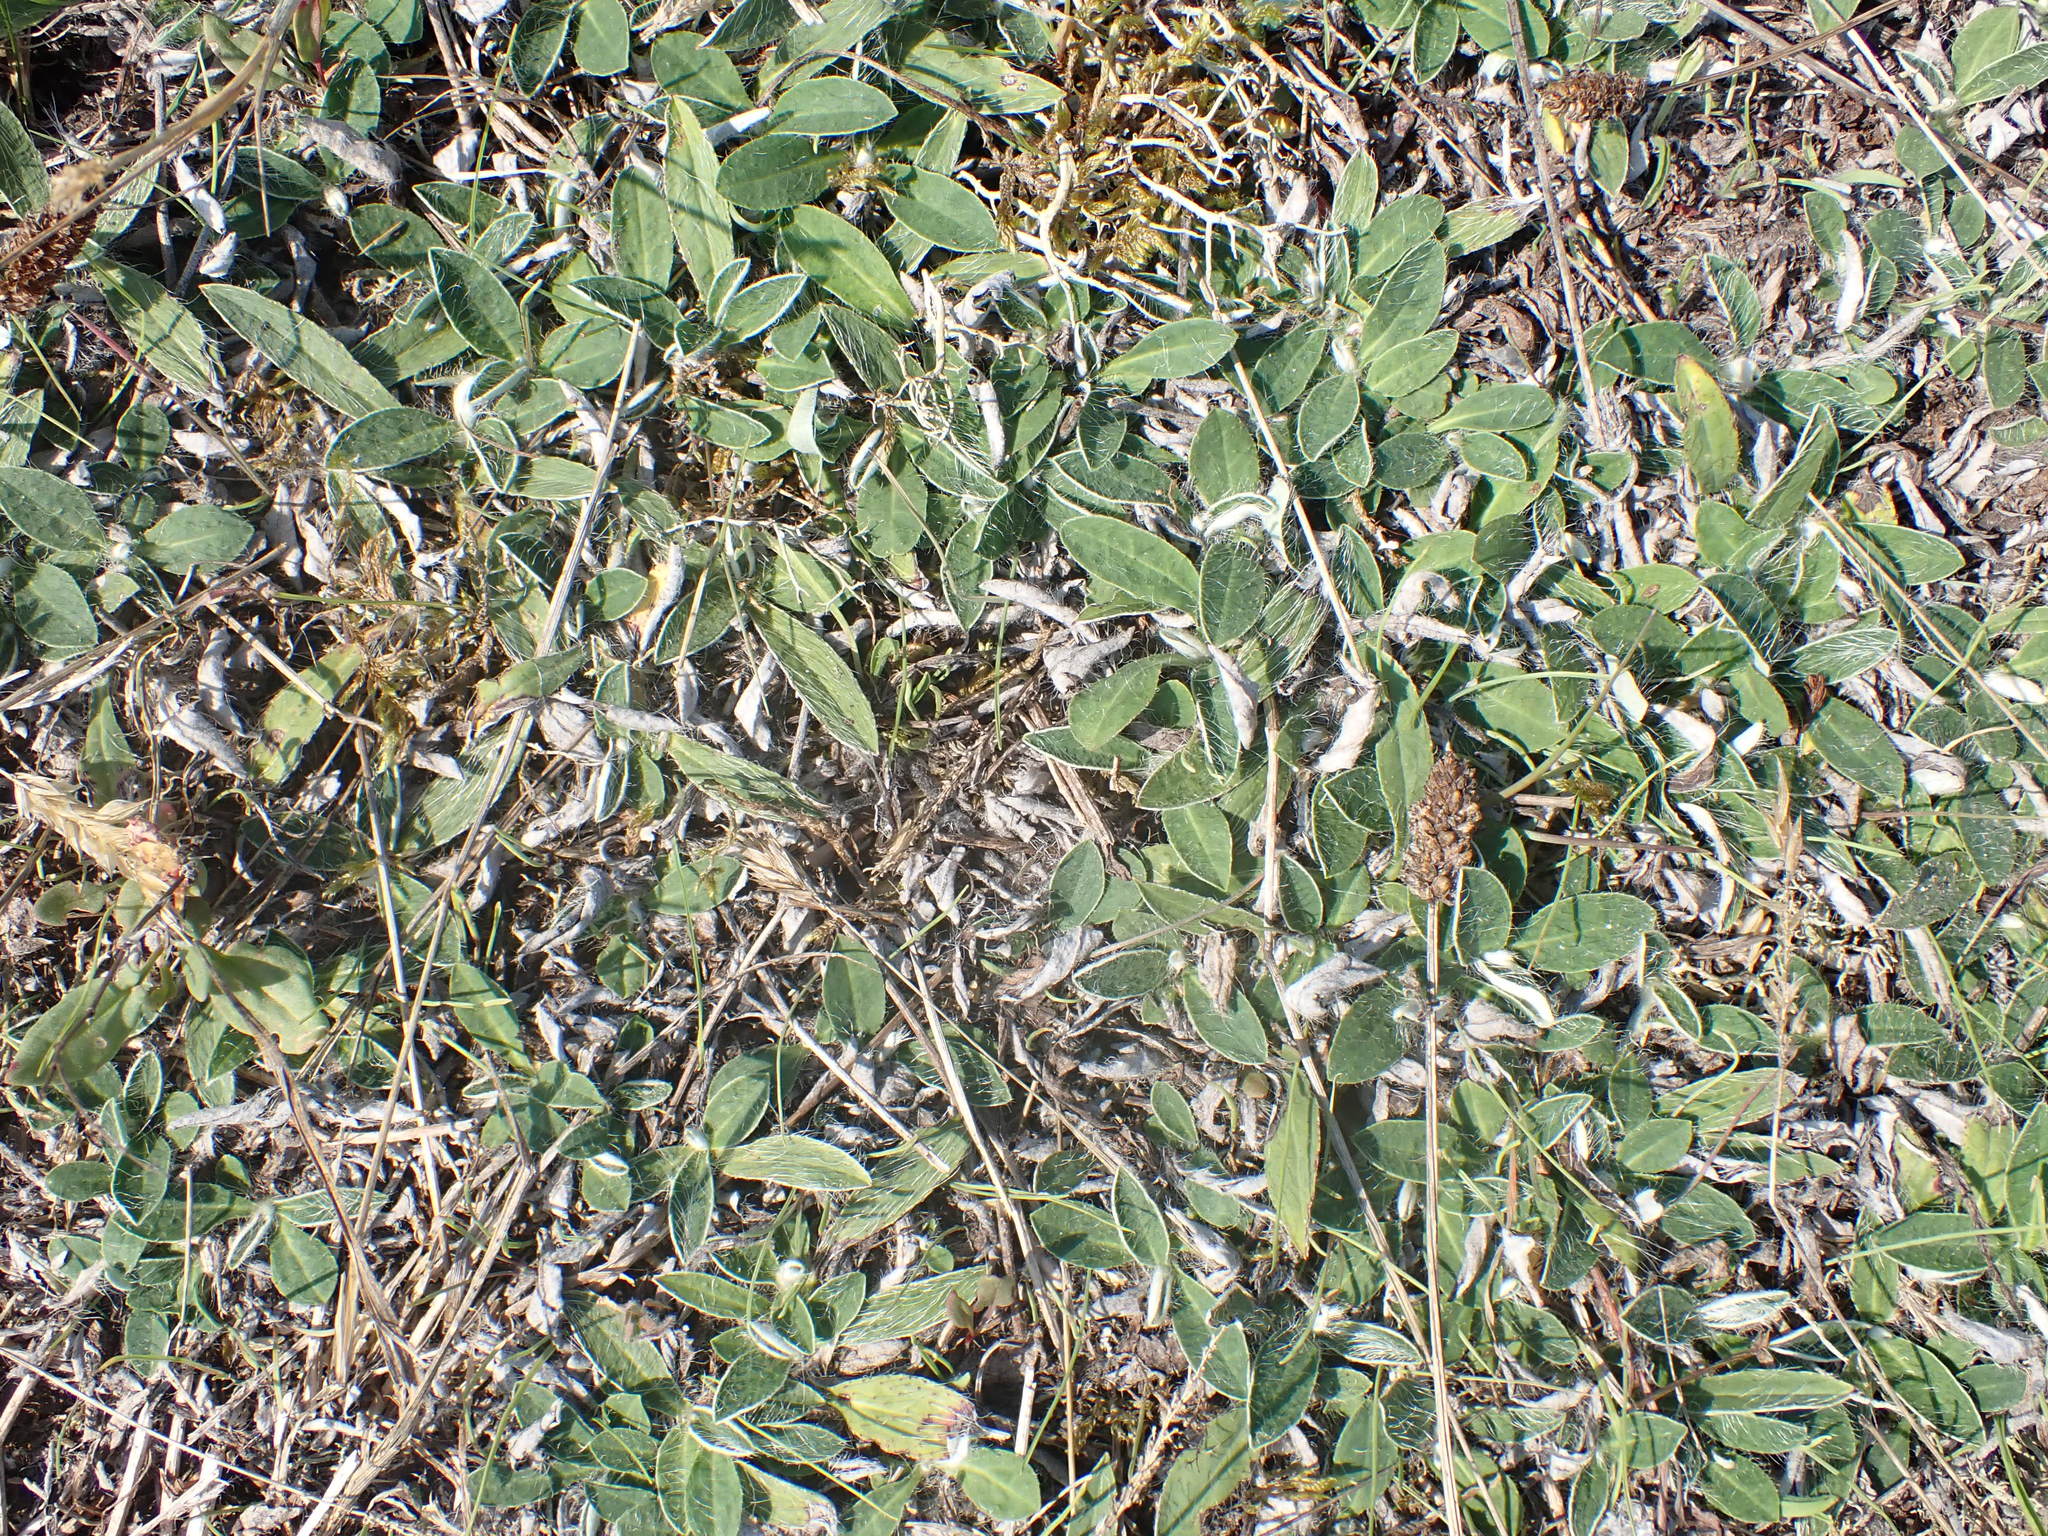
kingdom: Plantae
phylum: Tracheophyta
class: Magnoliopsida
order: Asterales
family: Asteraceae
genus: Pilosella
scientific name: Pilosella officinarum
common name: Mouse-ear hawkweed
